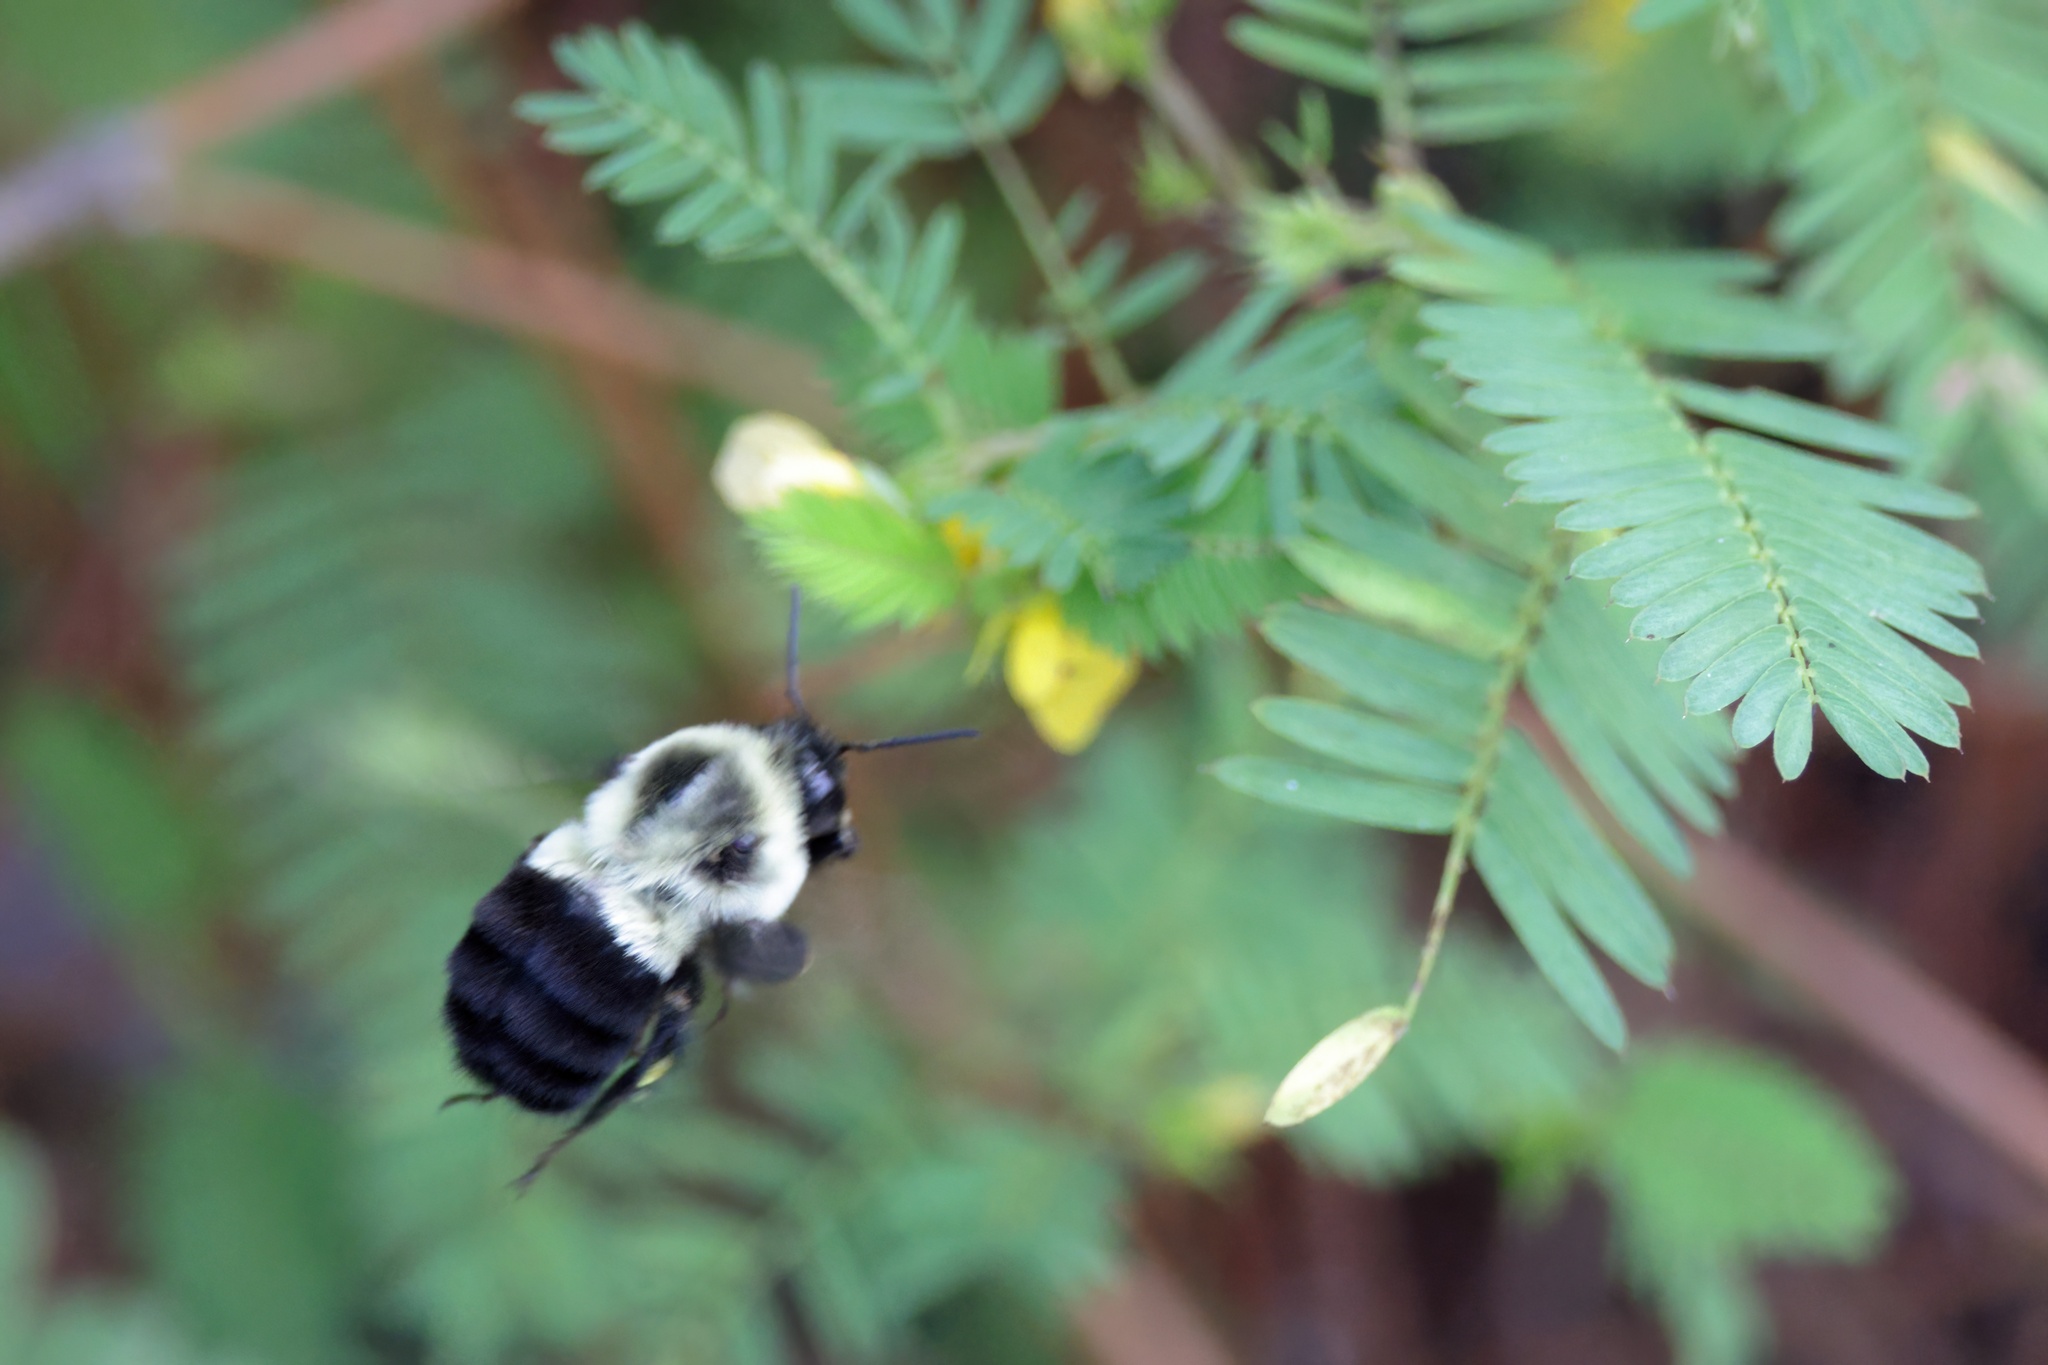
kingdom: Animalia
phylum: Arthropoda
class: Insecta
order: Hymenoptera
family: Apidae
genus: Bombus
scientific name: Bombus impatiens
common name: Common eastern bumble bee
